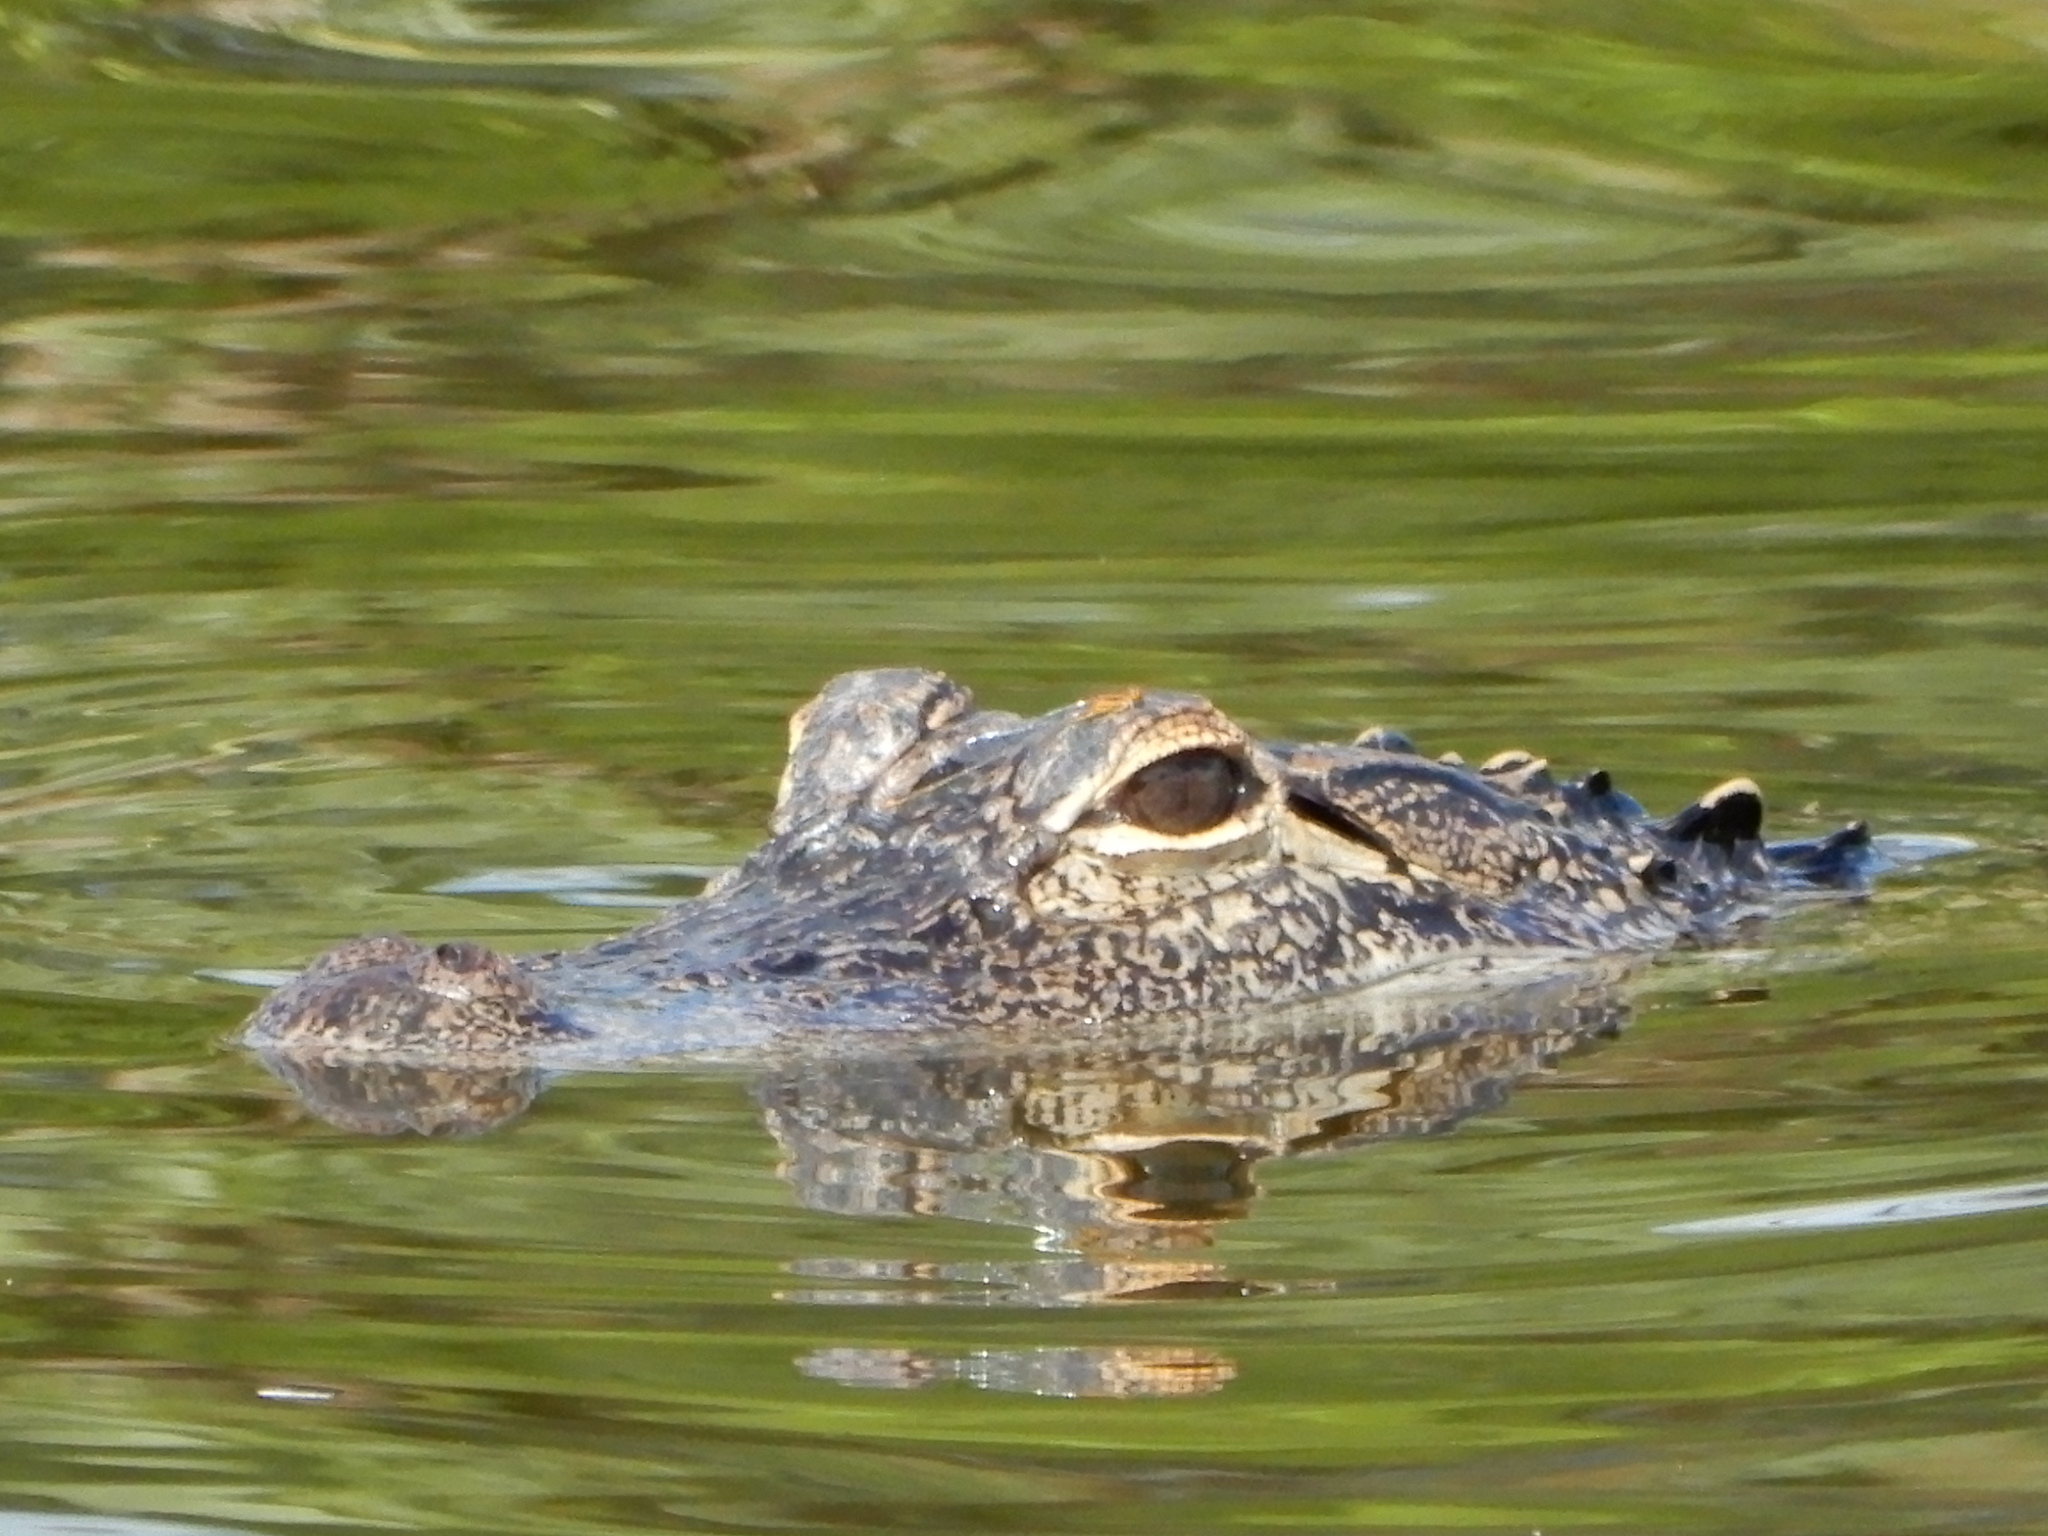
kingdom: Animalia
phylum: Chordata
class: Crocodylia
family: Alligatoridae
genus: Alligator
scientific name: Alligator mississippiensis
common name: American alligator
